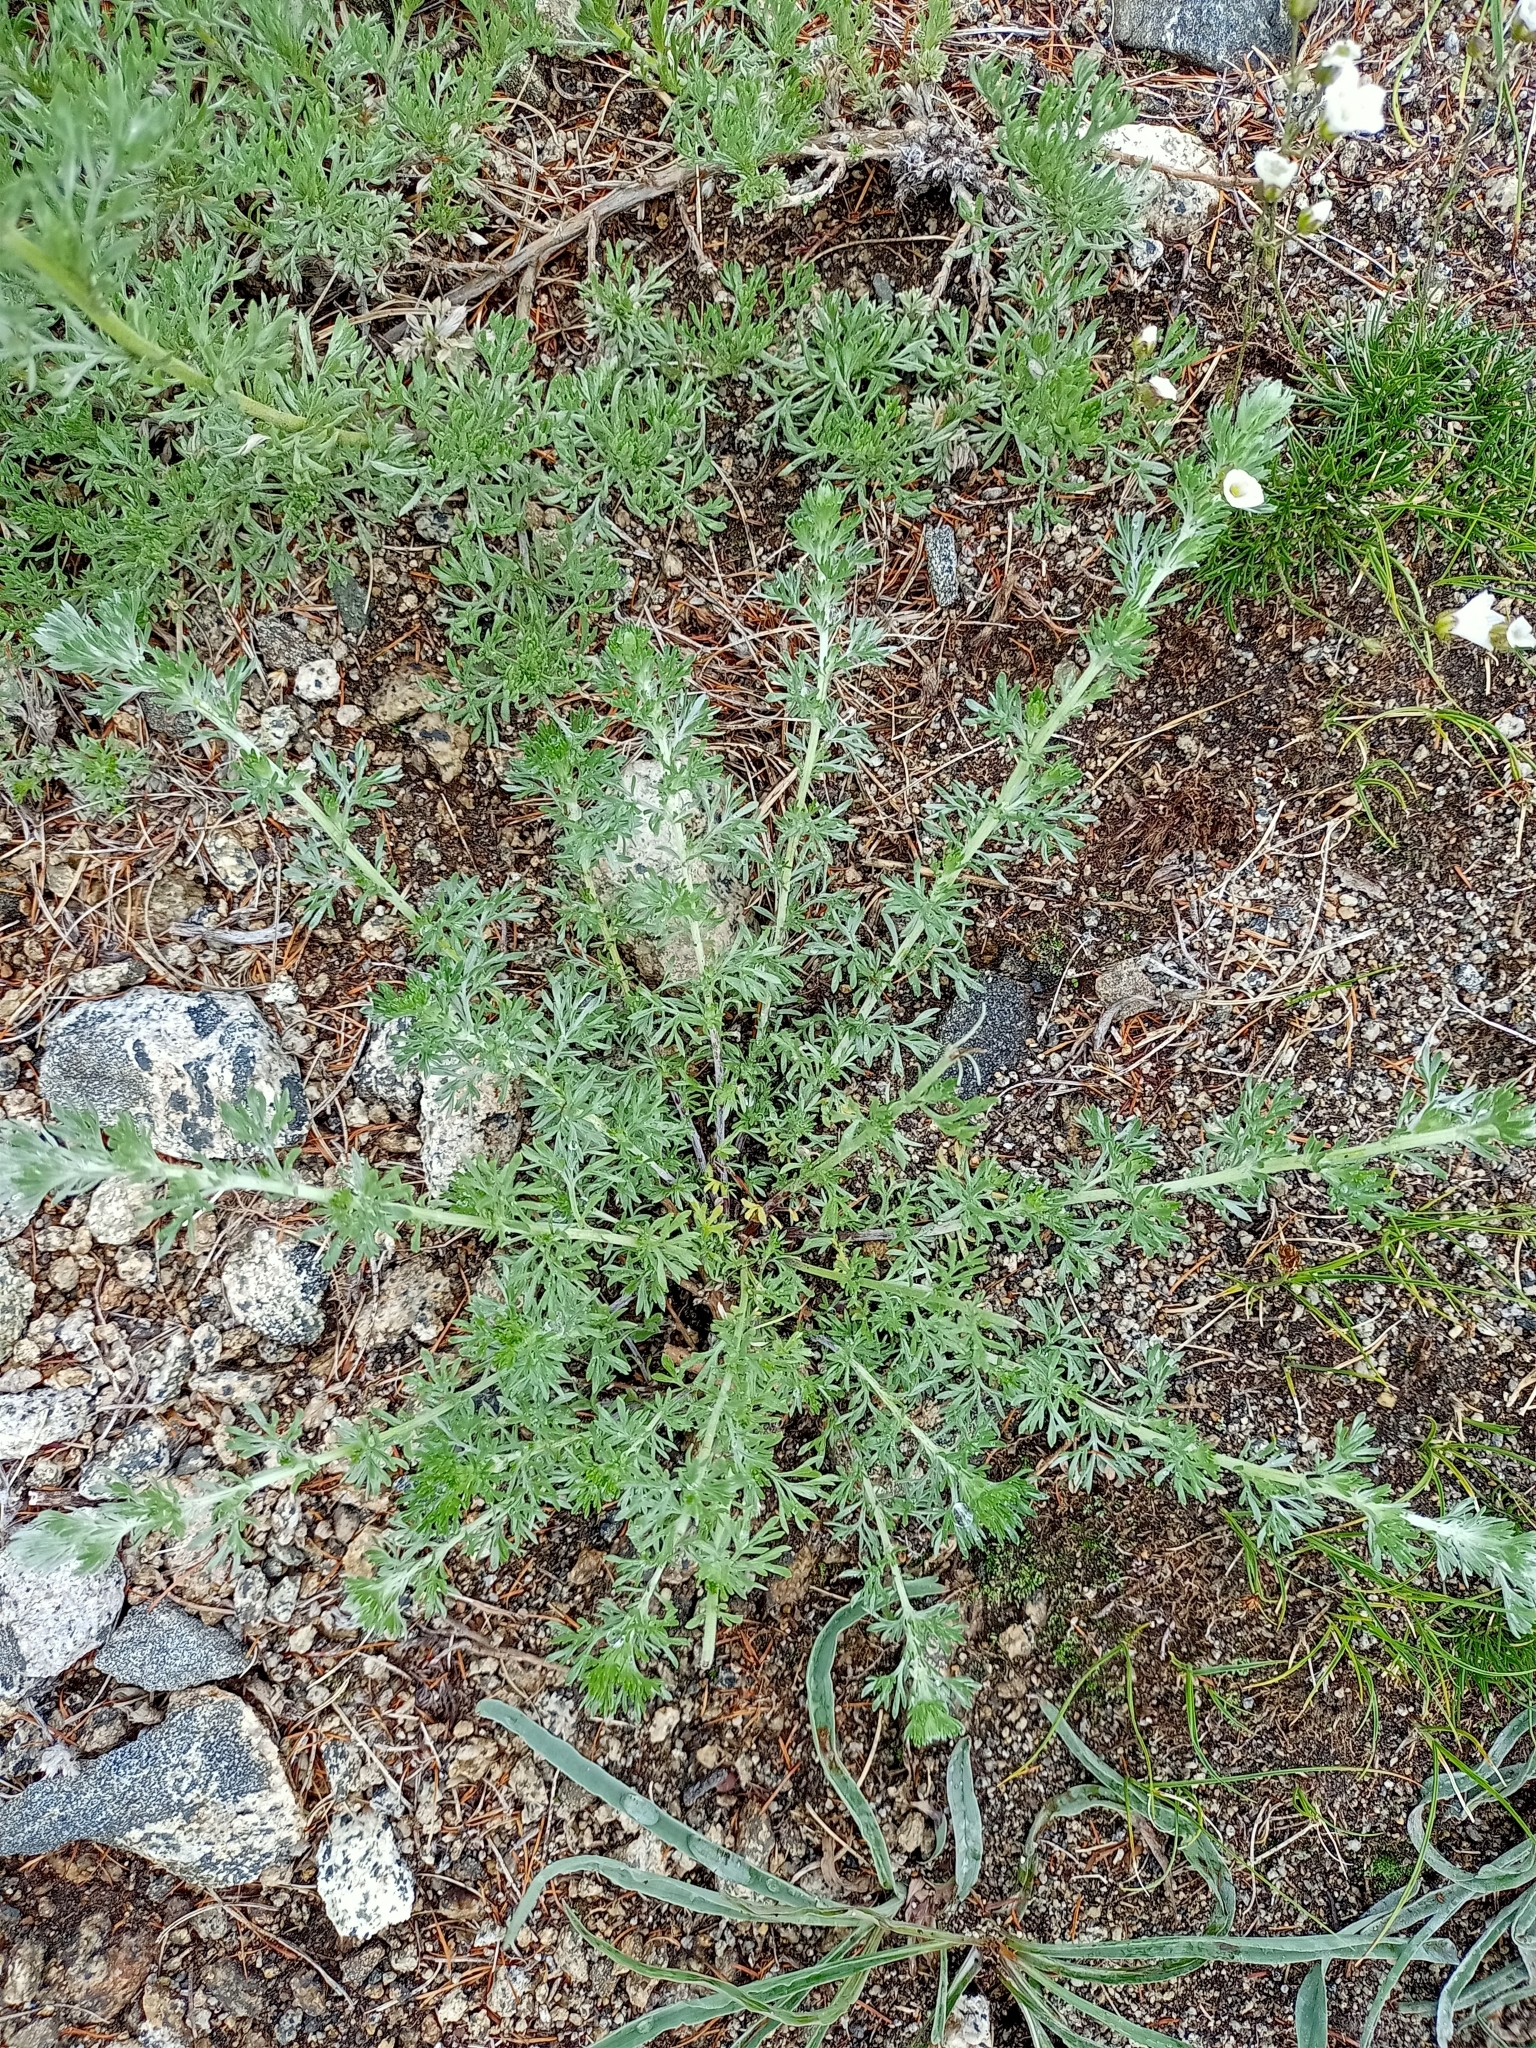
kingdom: Plantae
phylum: Tracheophyta
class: Magnoliopsida
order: Asterales
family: Asteraceae
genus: Artemisia
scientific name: Artemisia frigida
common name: Prairie sagewort
